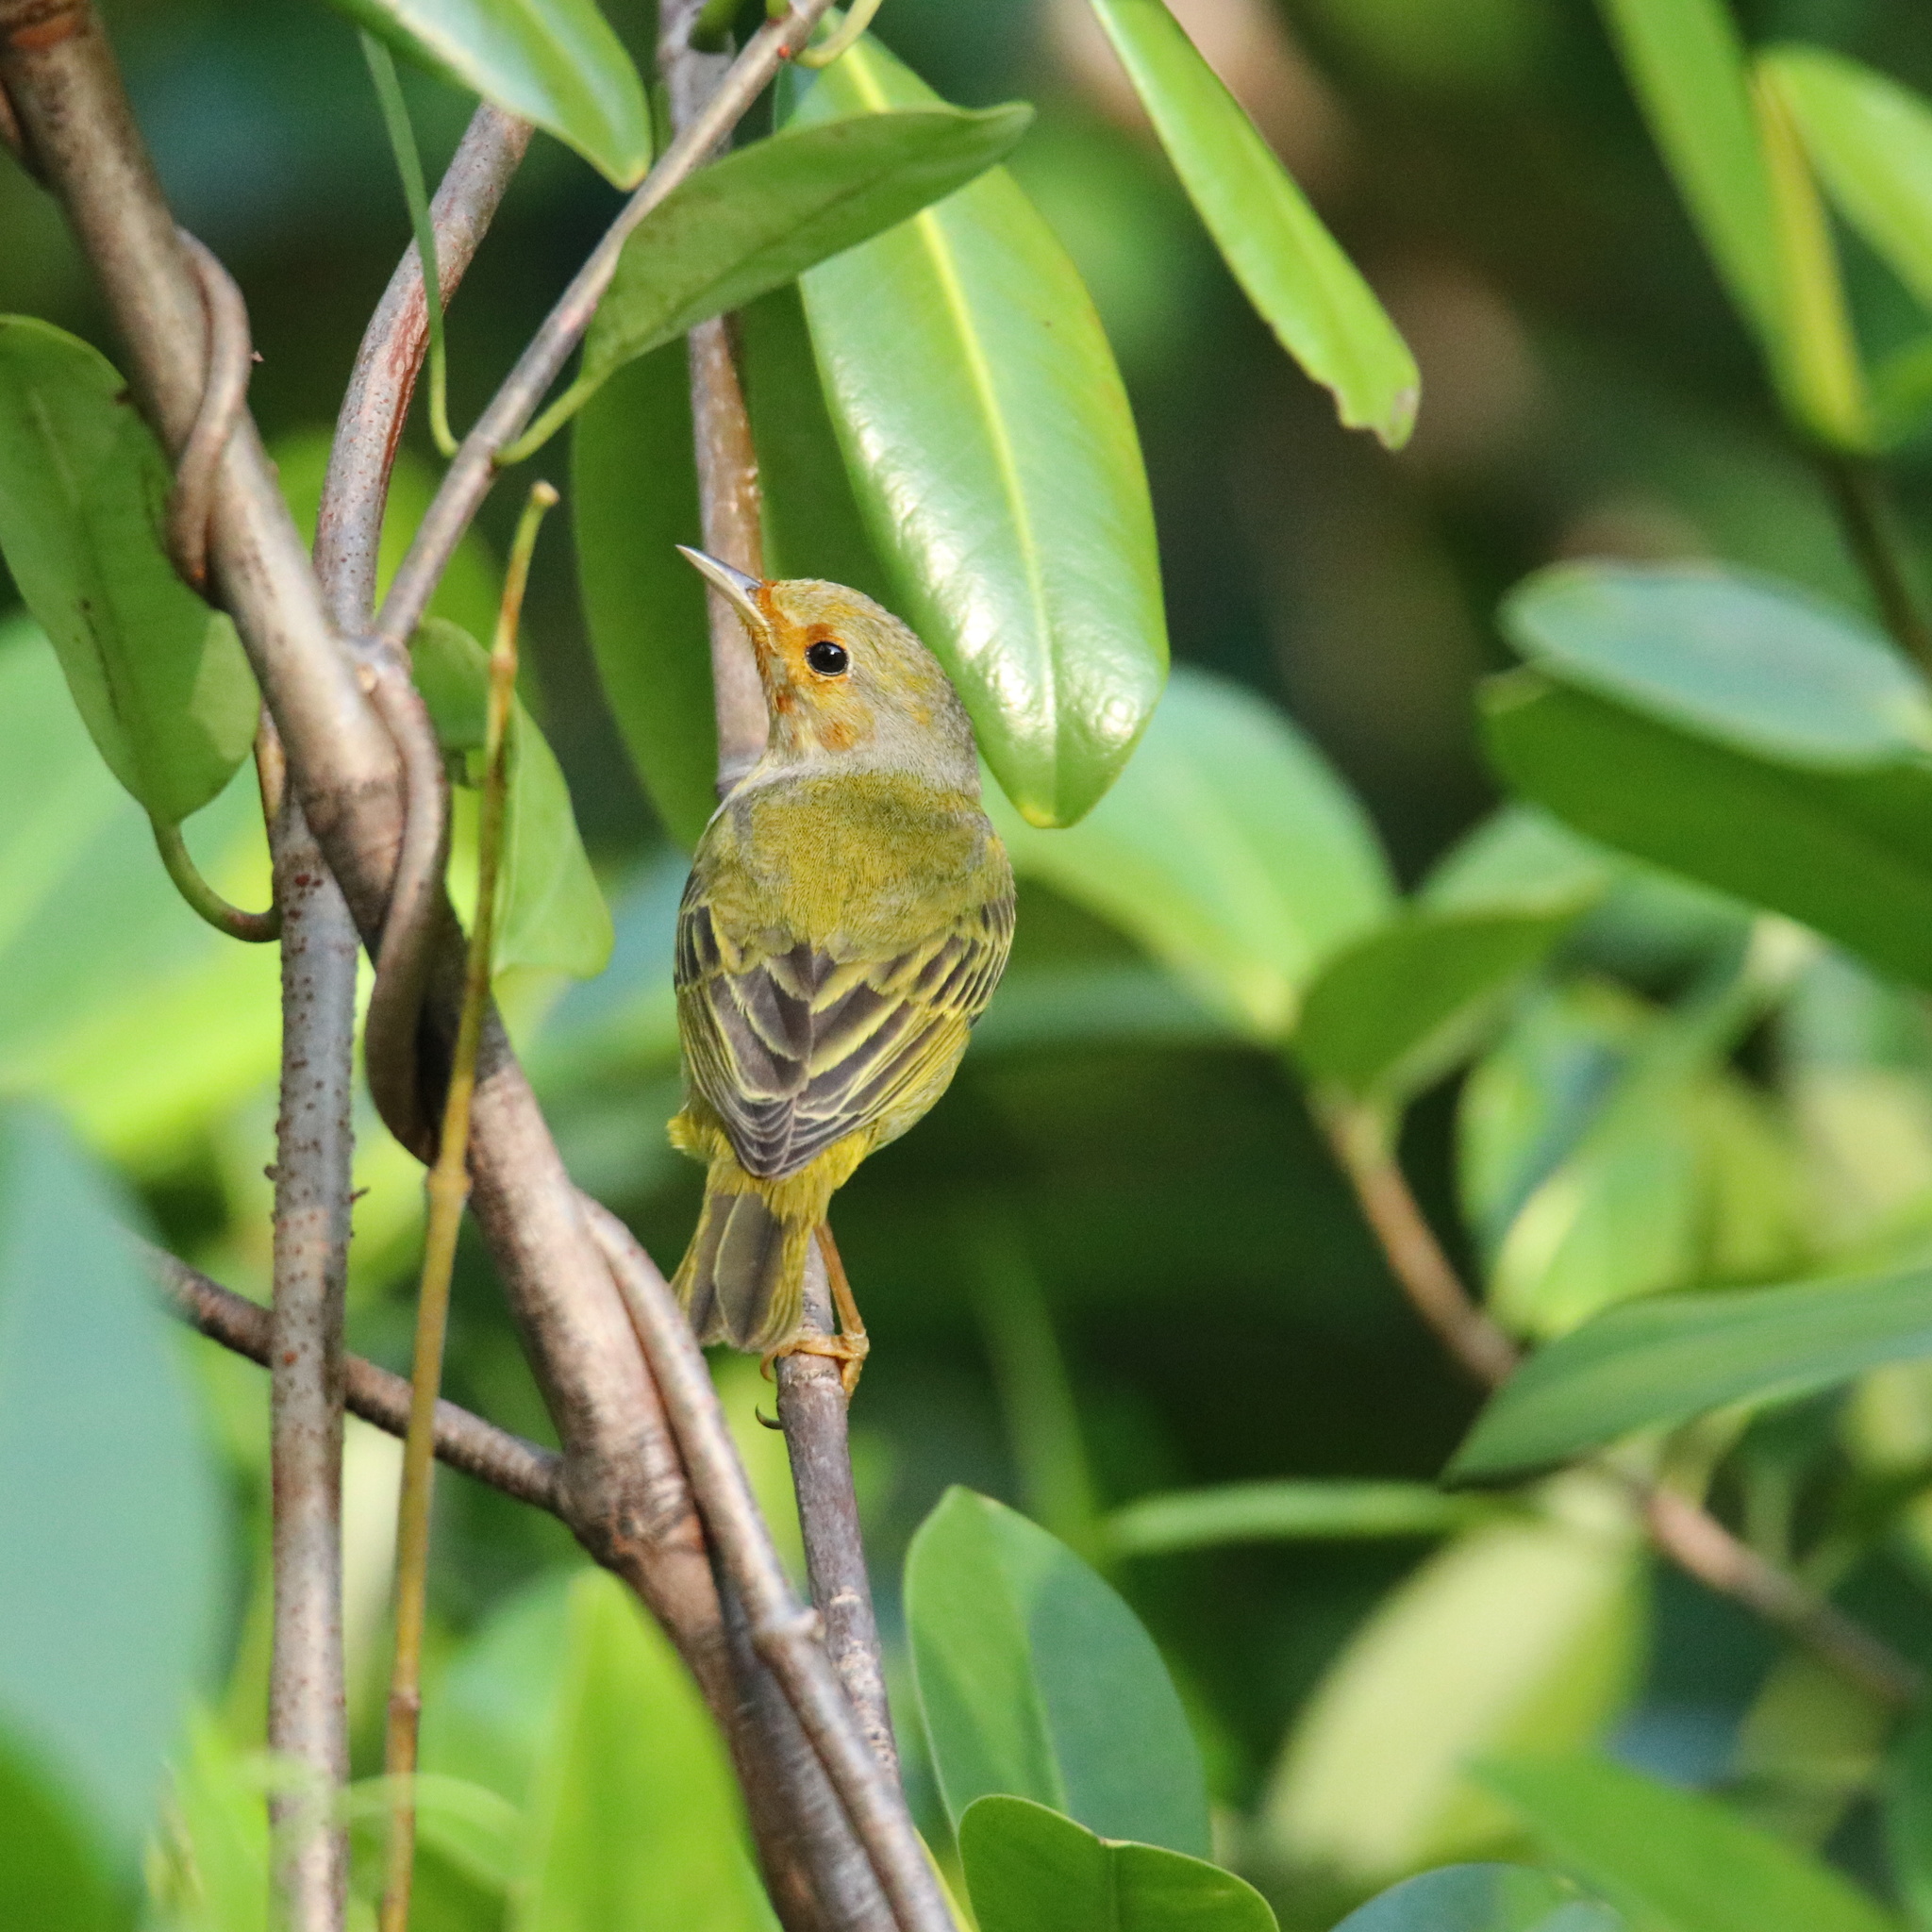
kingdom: Animalia
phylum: Chordata
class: Aves
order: Passeriformes
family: Parulidae
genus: Setophaga
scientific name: Setophaga petechia
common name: Yellow warbler
